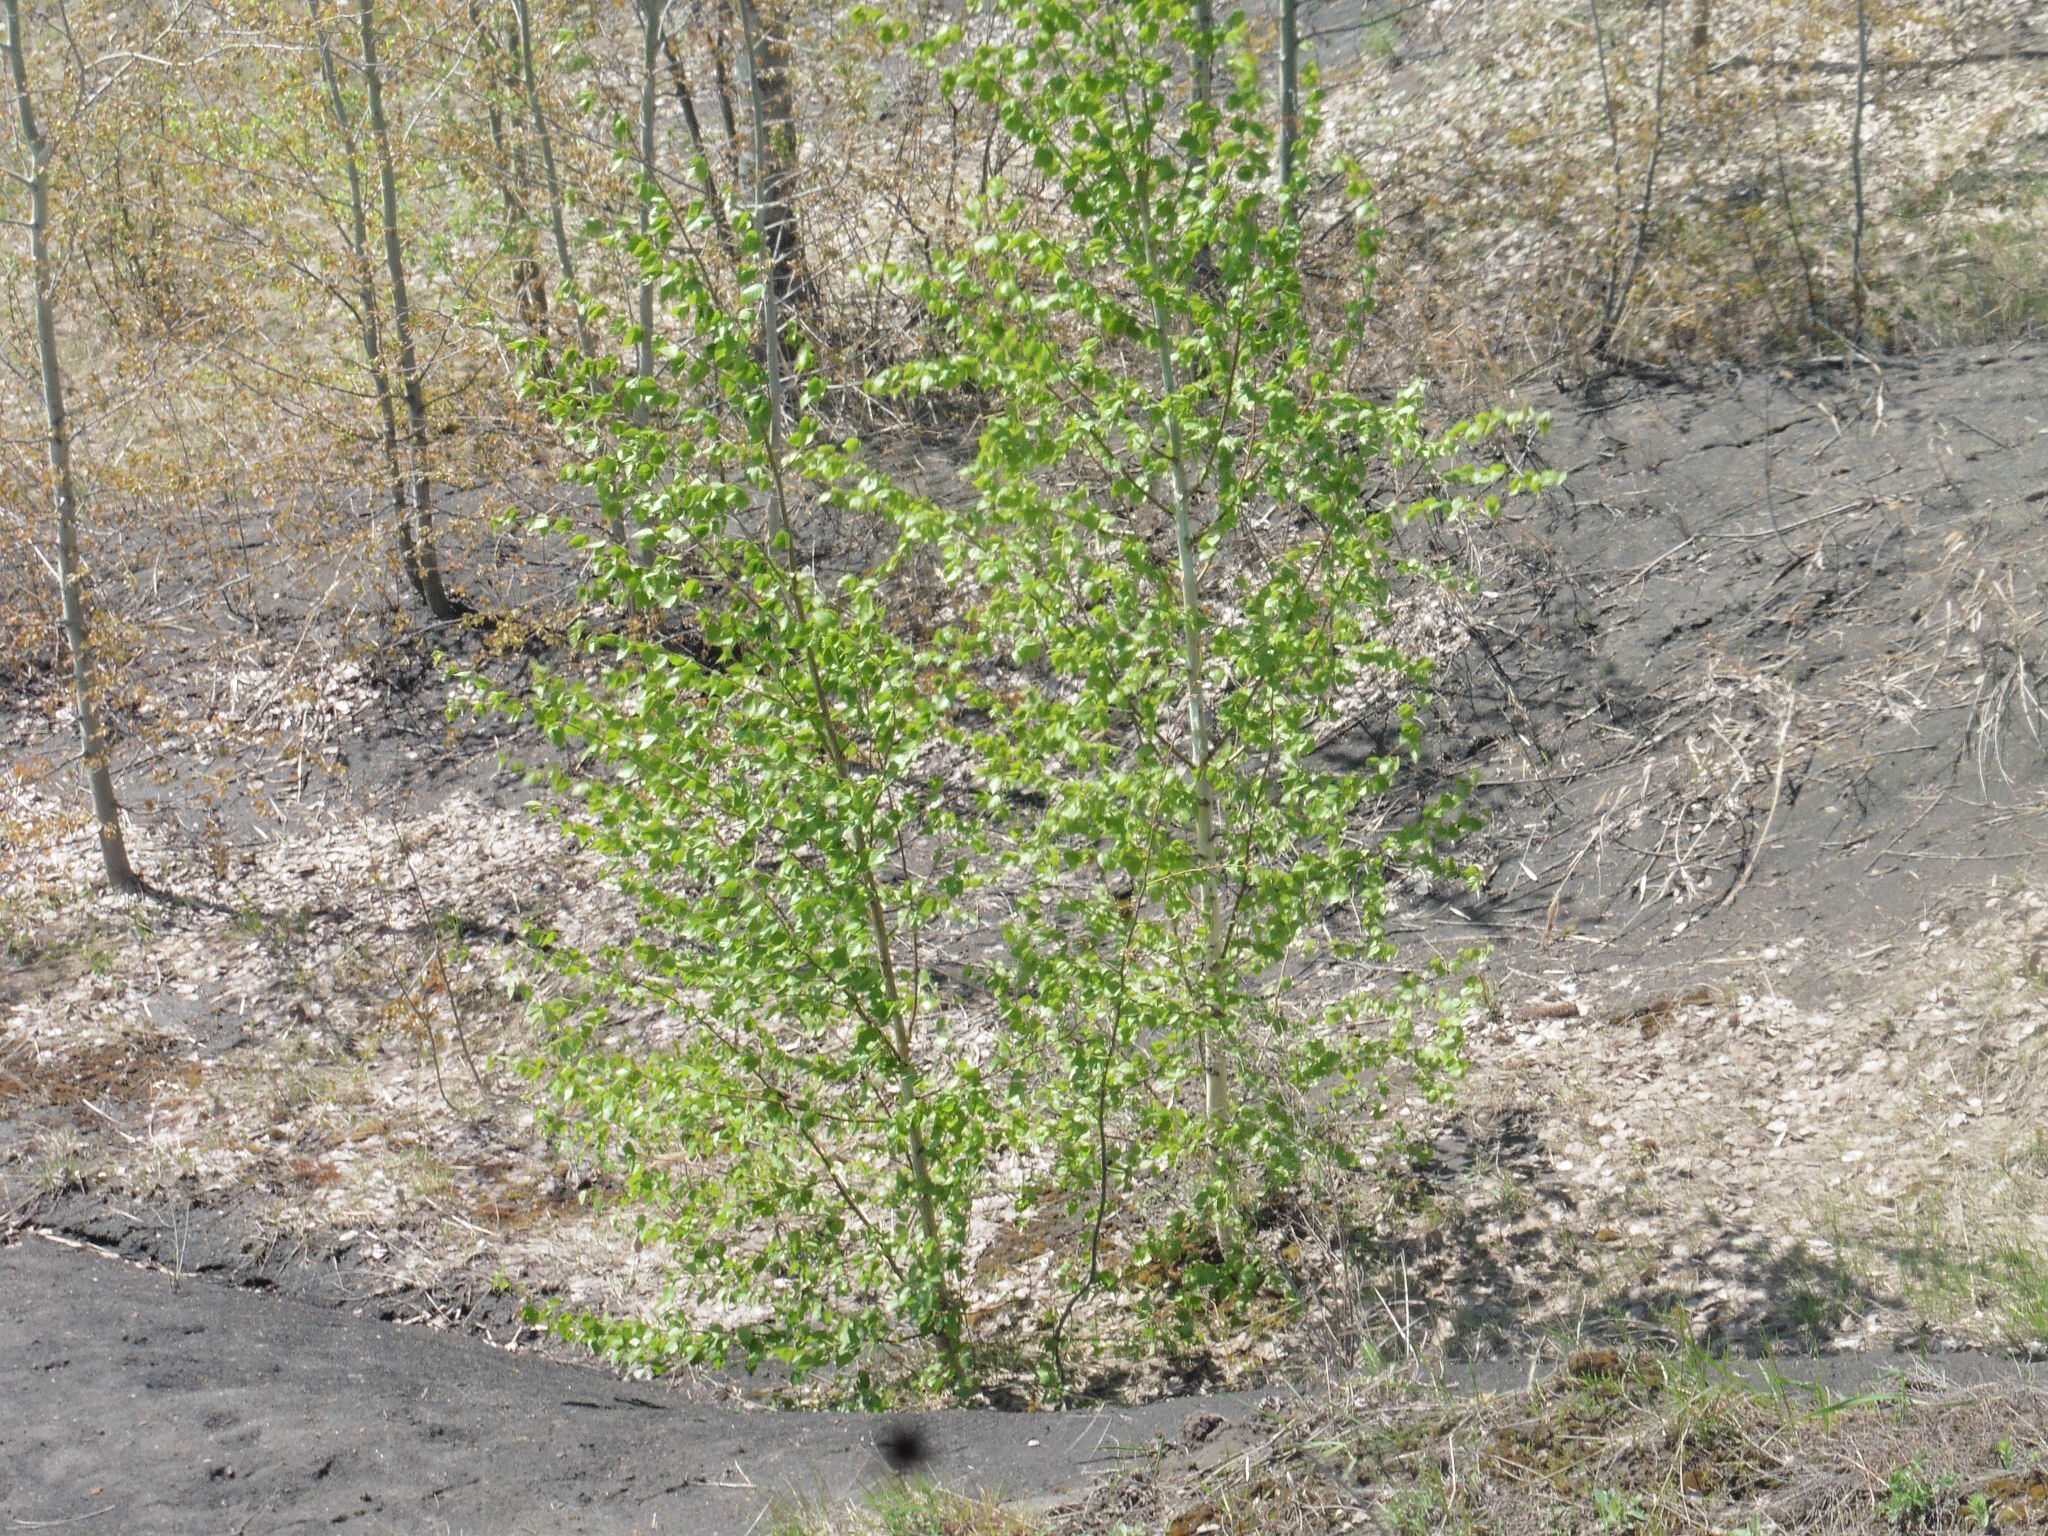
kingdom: Plantae
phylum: Tracheophyta
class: Magnoliopsida
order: Fagales
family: Betulaceae
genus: Betula
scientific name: Betula pendula
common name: Silver birch
